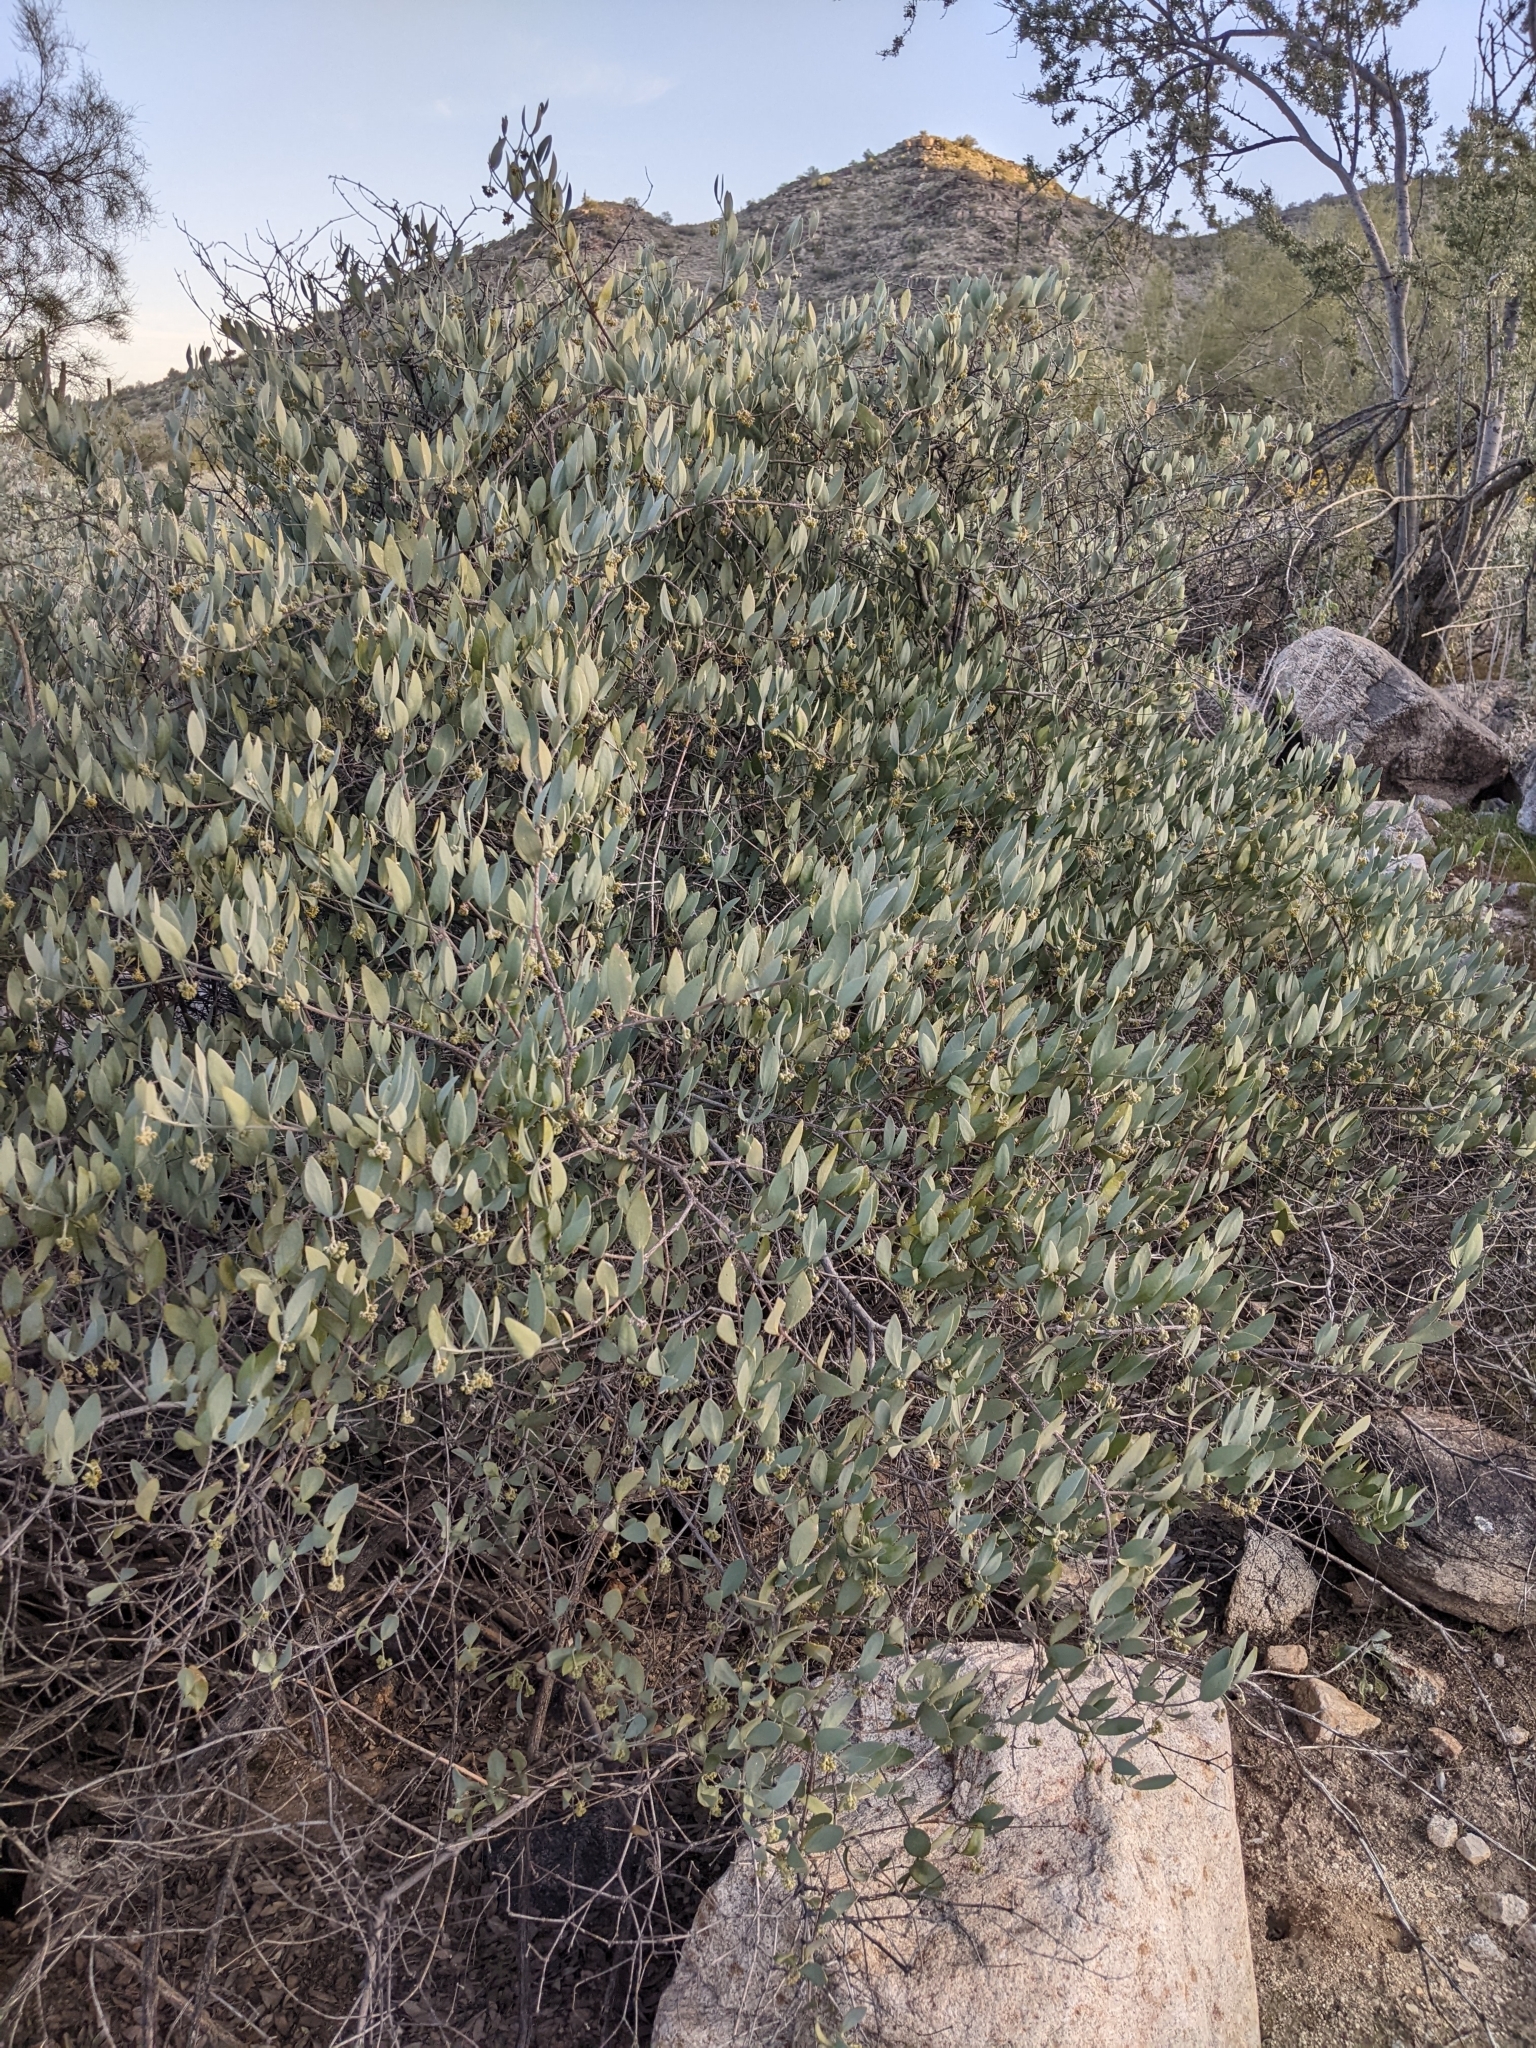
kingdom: Plantae
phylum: Tracheophyta
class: Magnoliopsida
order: Caryophyllales
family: Simmondsiaceae
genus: Simmondsia
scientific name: Simmondsia chinensis
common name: Jojoba
